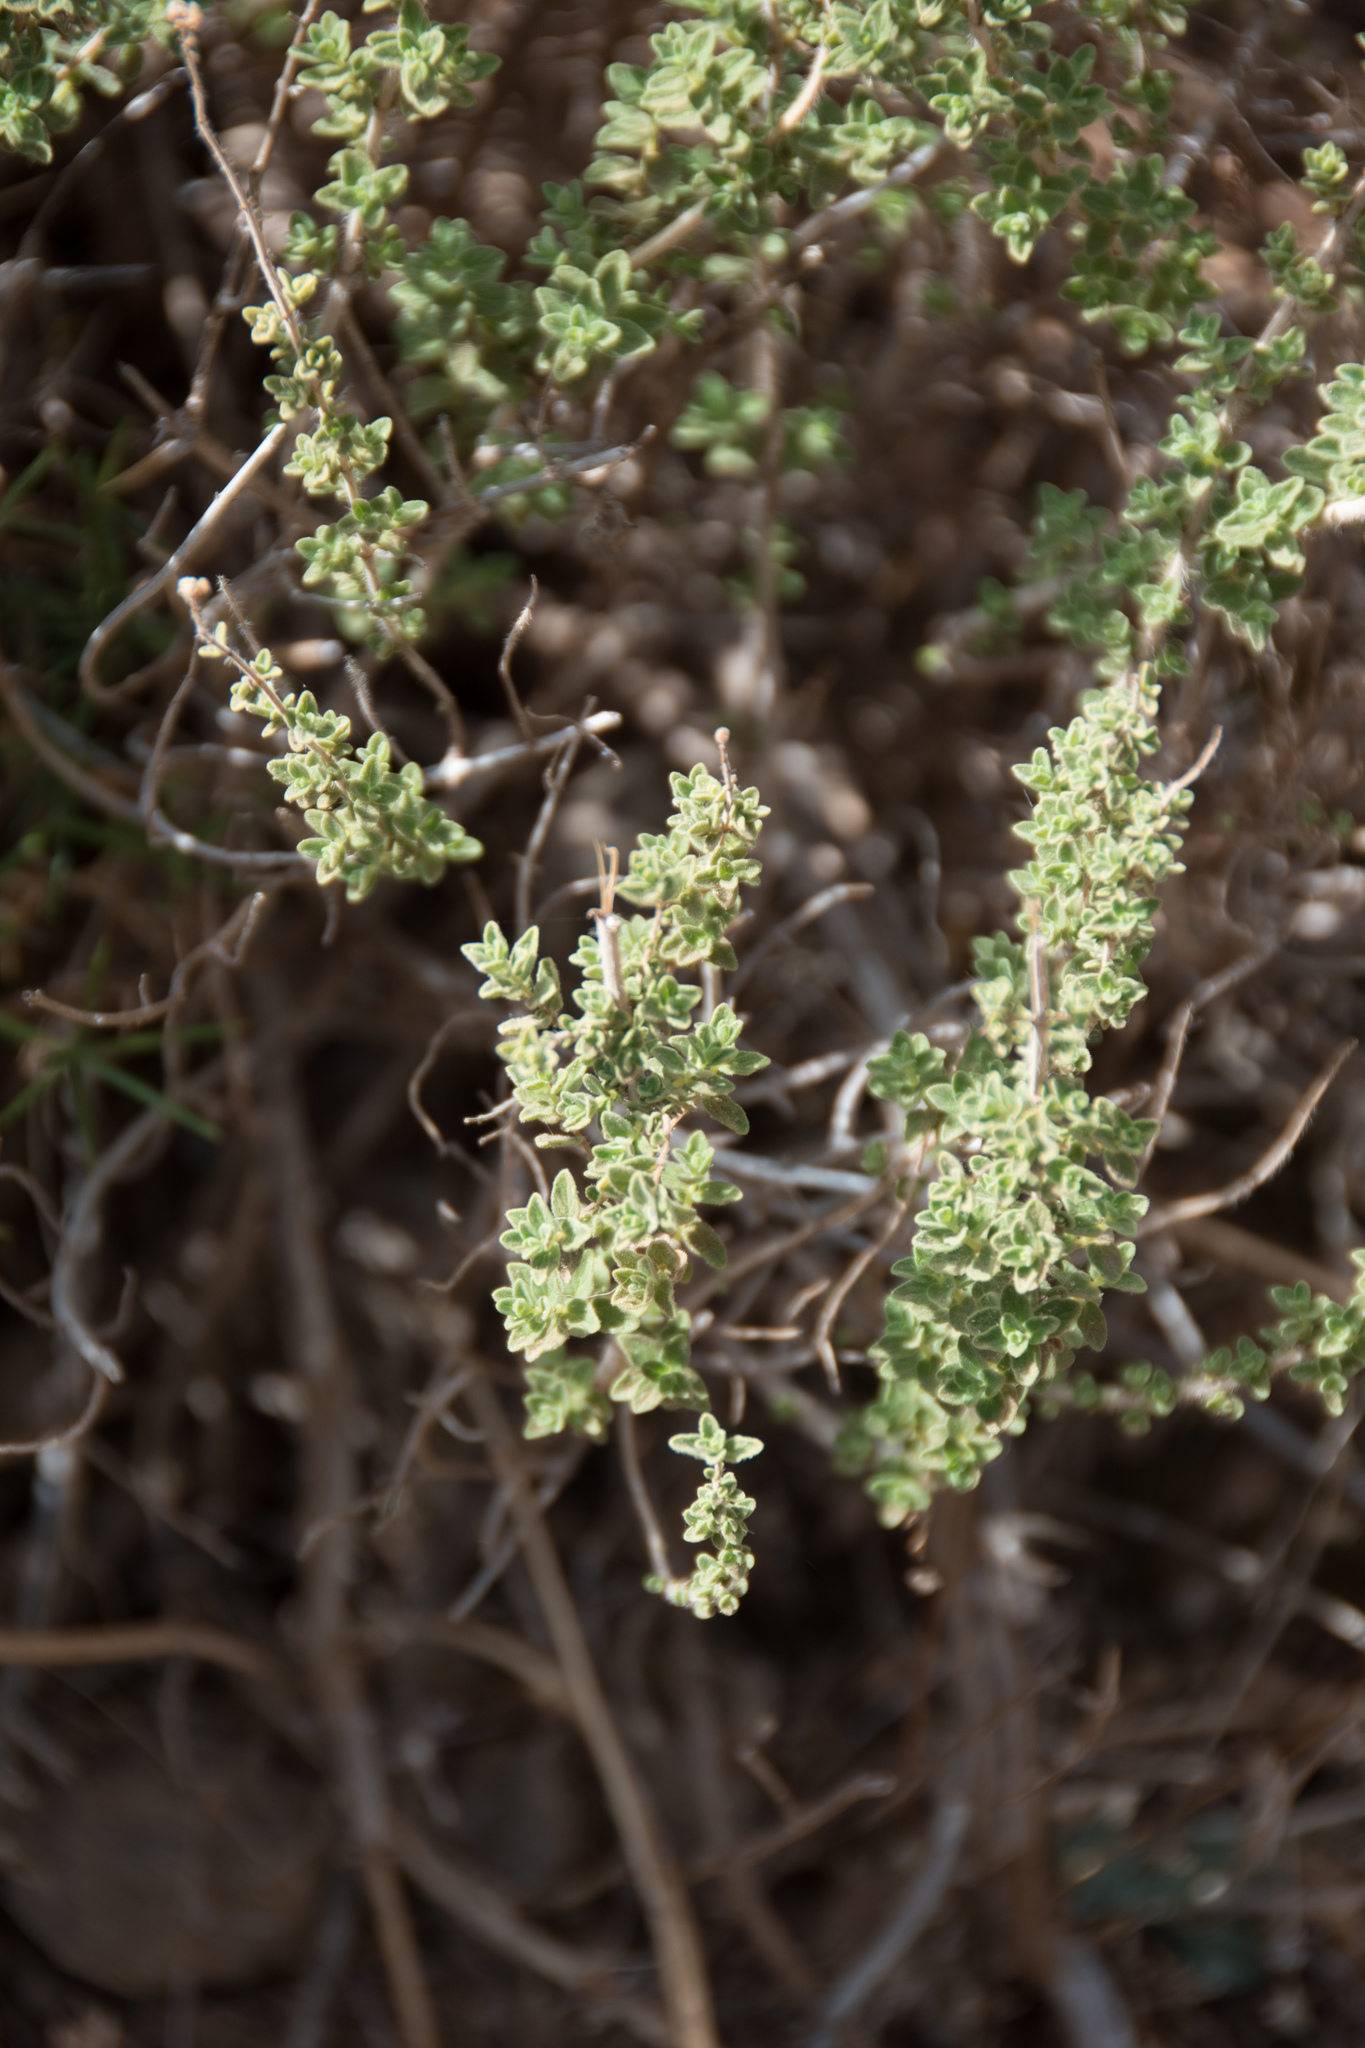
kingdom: Plantae
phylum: Tracheophyta
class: Magnoliopsida
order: Lamiales
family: Lamiaceae
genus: Origanum
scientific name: Origanum onites
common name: Turkish oregano
